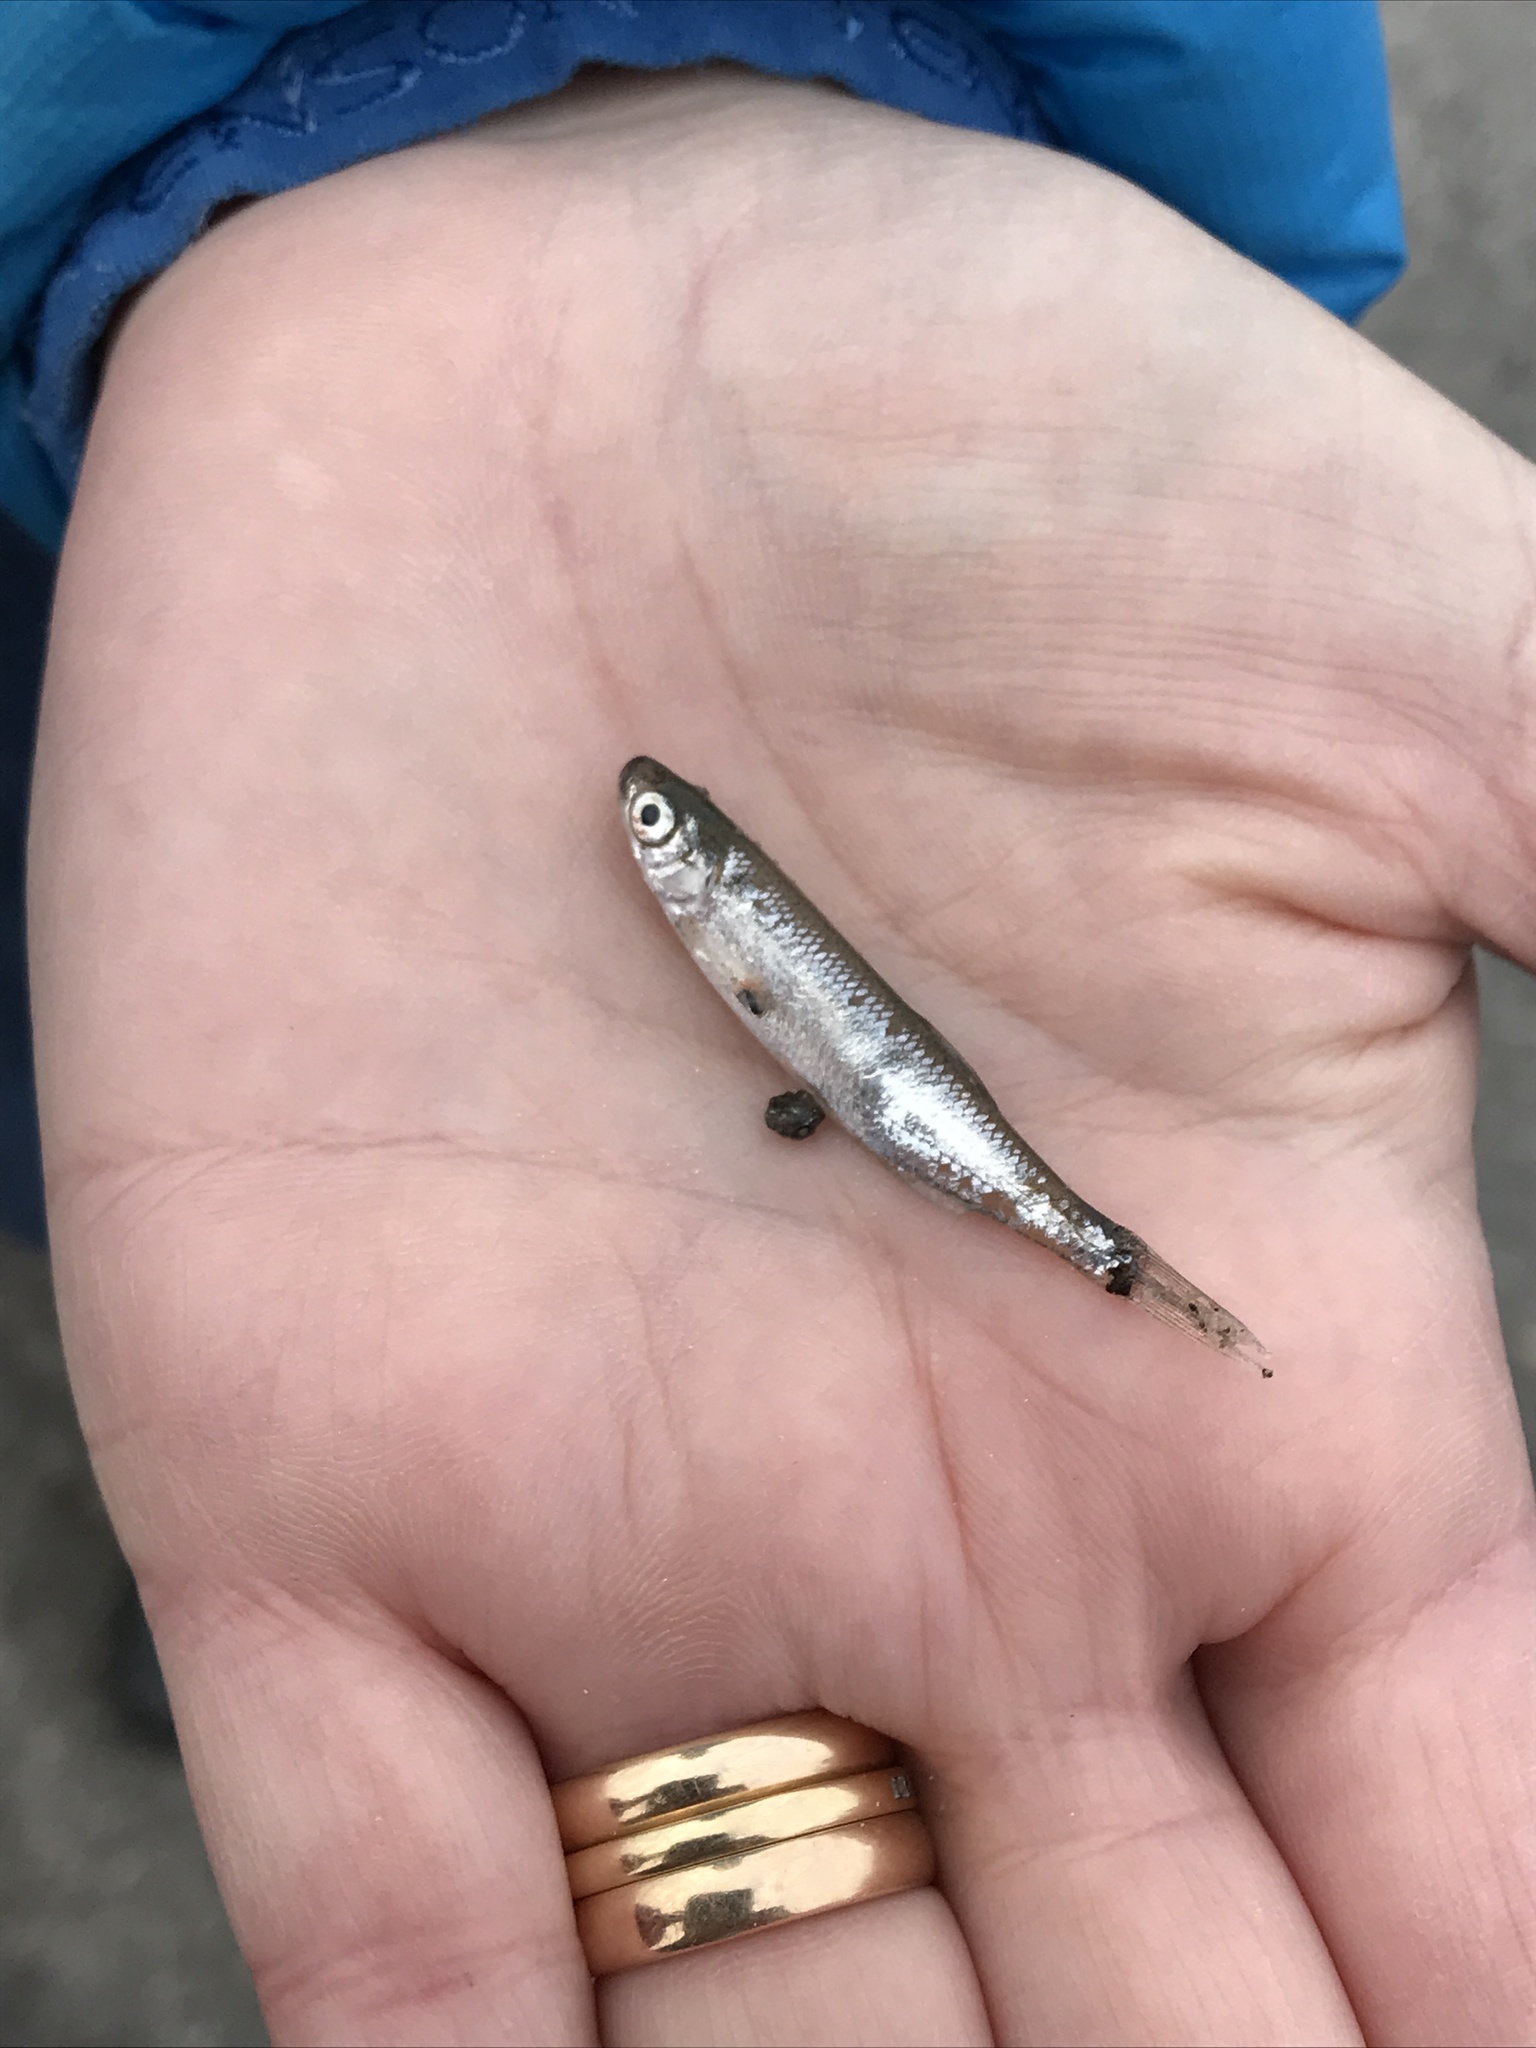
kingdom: Animalia
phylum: Chordata
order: Cypriniformes
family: Cyprinidae
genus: Alburnus
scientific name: Alburnus alburnus
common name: Bleak
